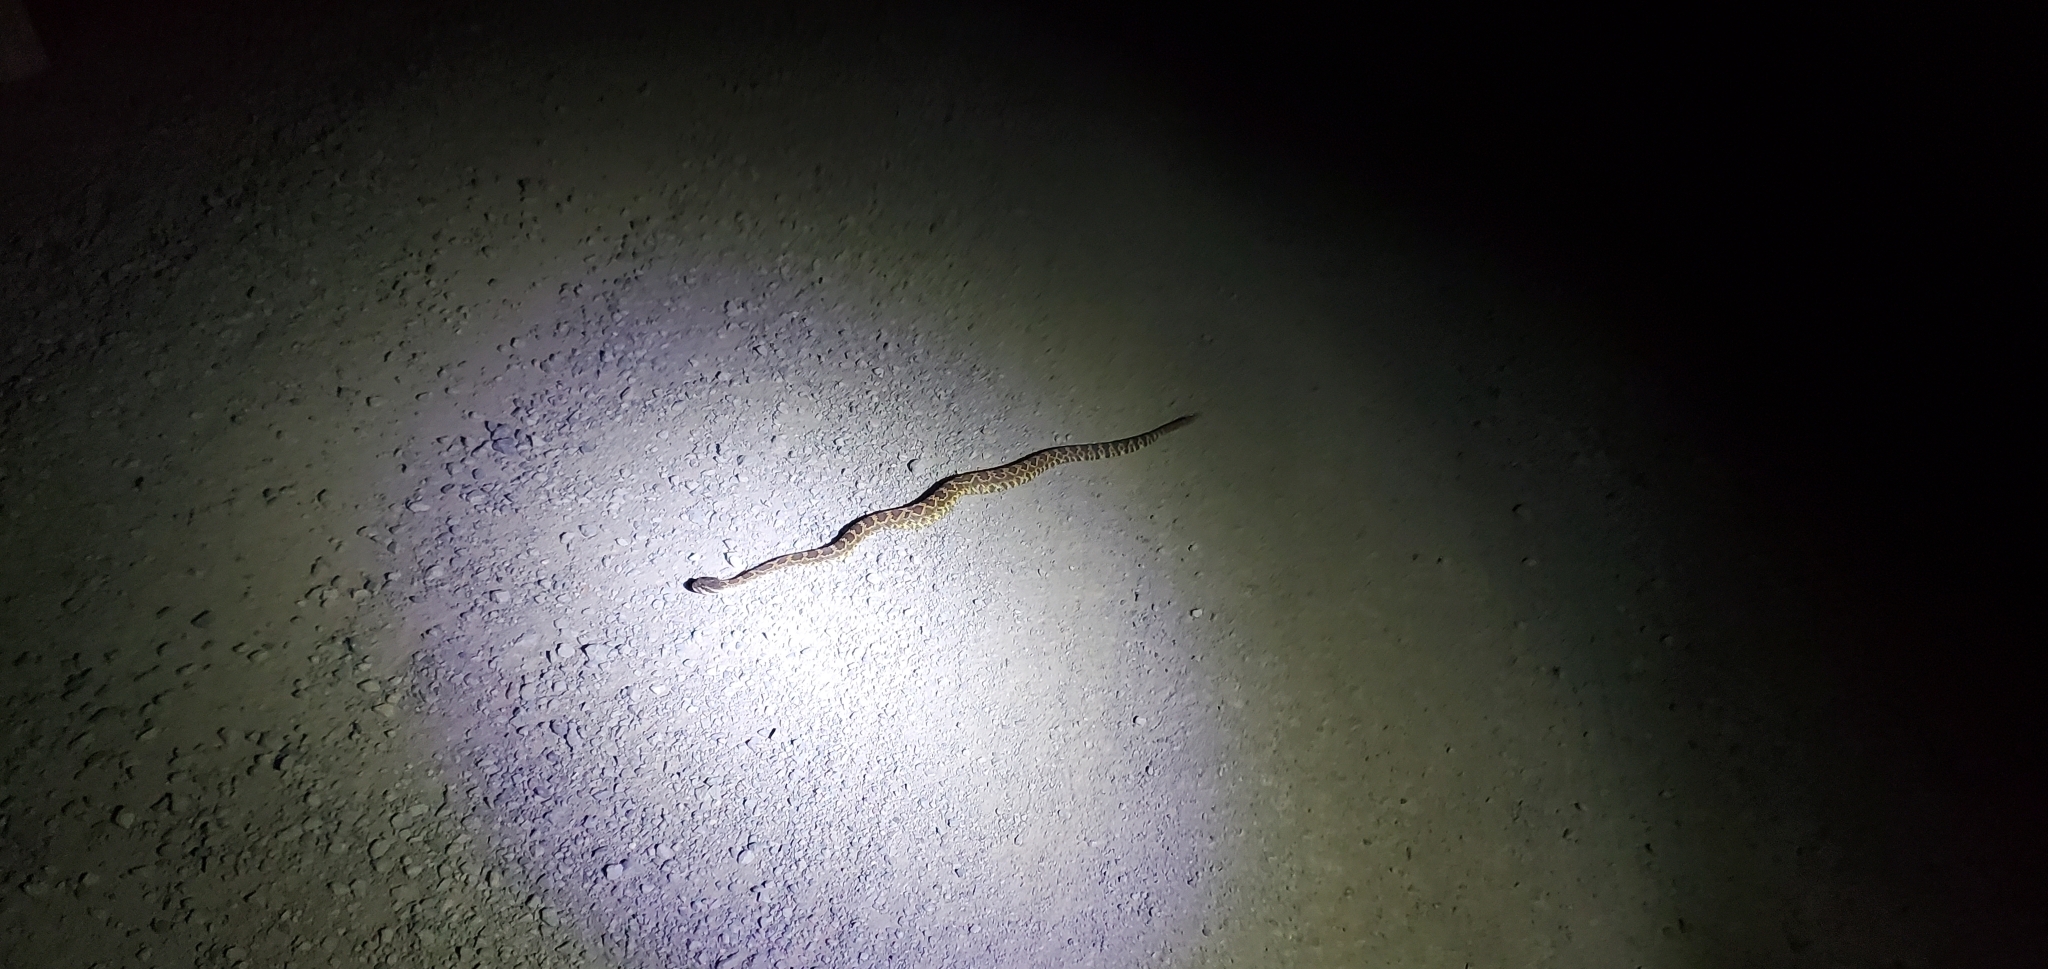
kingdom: Animalia
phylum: Chordata
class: Squamata
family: Viperidae
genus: Crotalus
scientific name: Crotalus oreganus
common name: Abyssus
